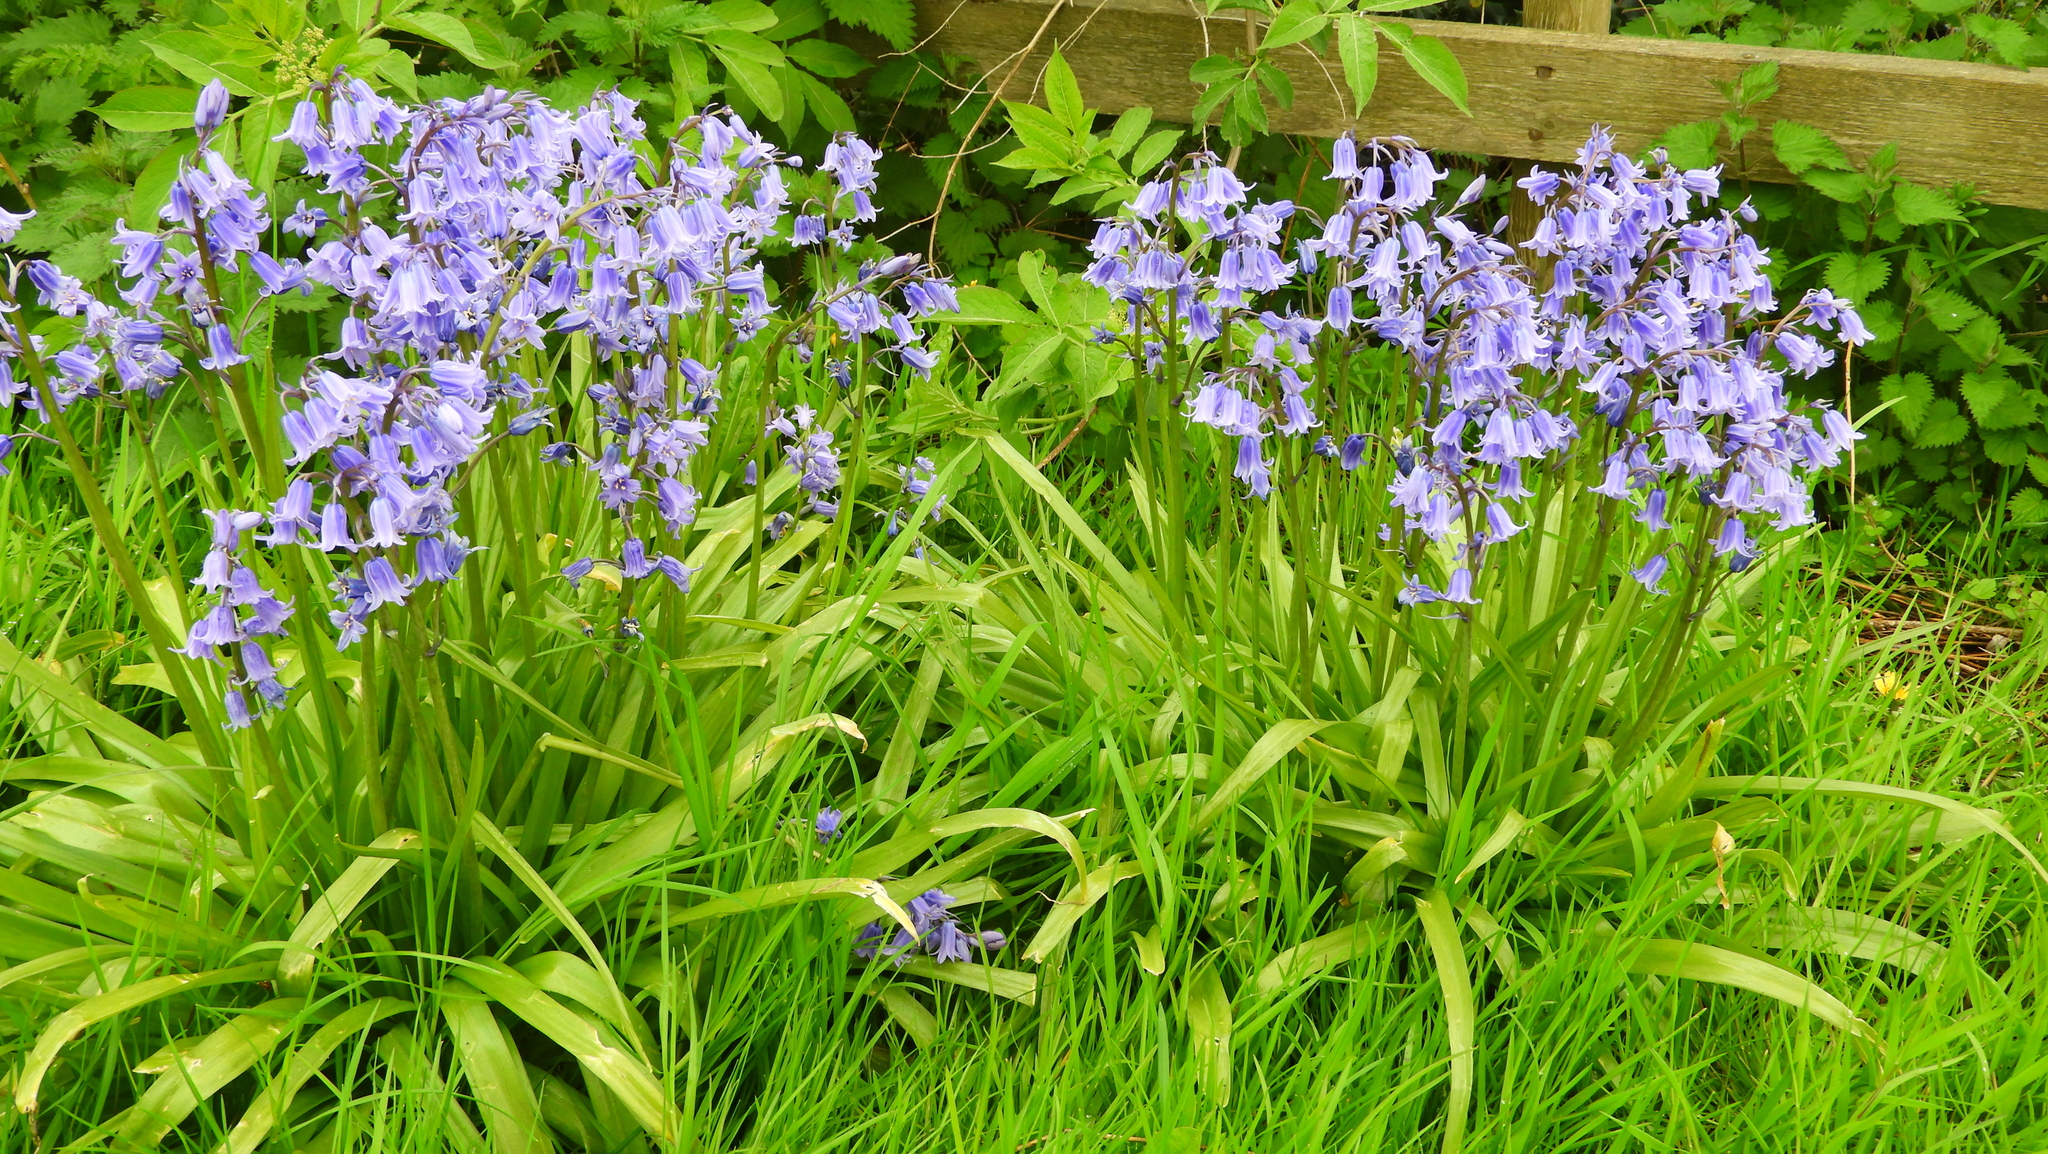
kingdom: Plantae
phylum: Tracheophyta
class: Liliopsida
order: Asparagales
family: Asparagaceae
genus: Hyacinthoides
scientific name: Hyacinthoides non-scripta
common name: Bluebell
